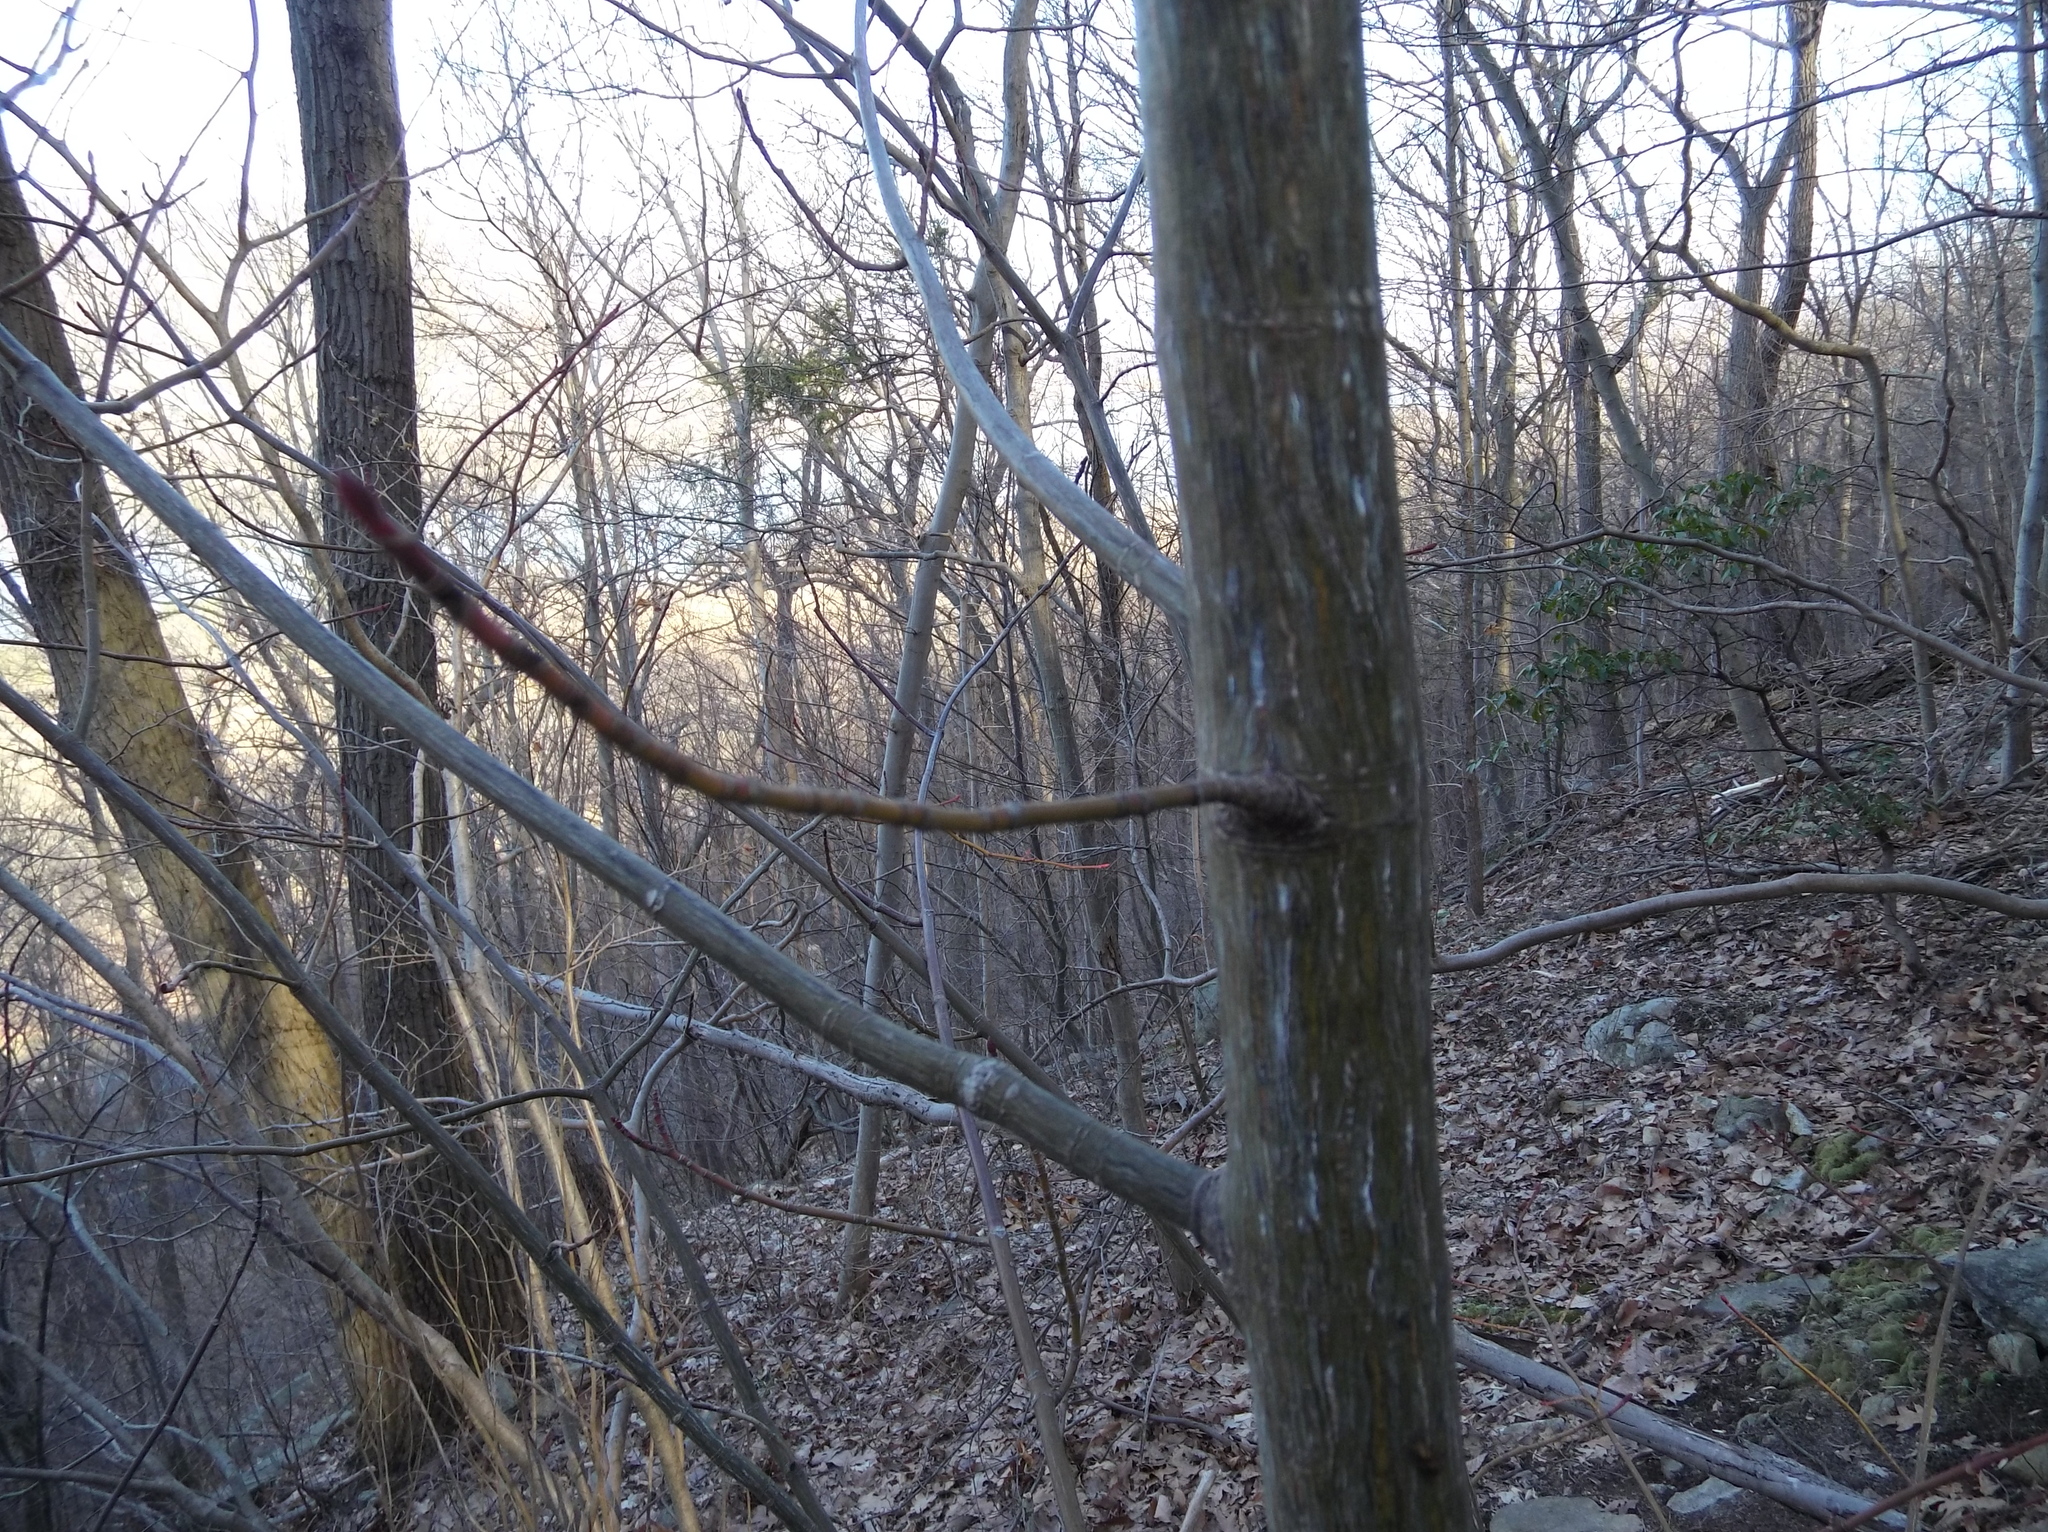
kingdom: Plantae
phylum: Tracheophyta
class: Magnoliopsida
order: Sapindales
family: Sapindaceae
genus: Acer
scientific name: Acer pensylvanicum
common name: Moosewood
